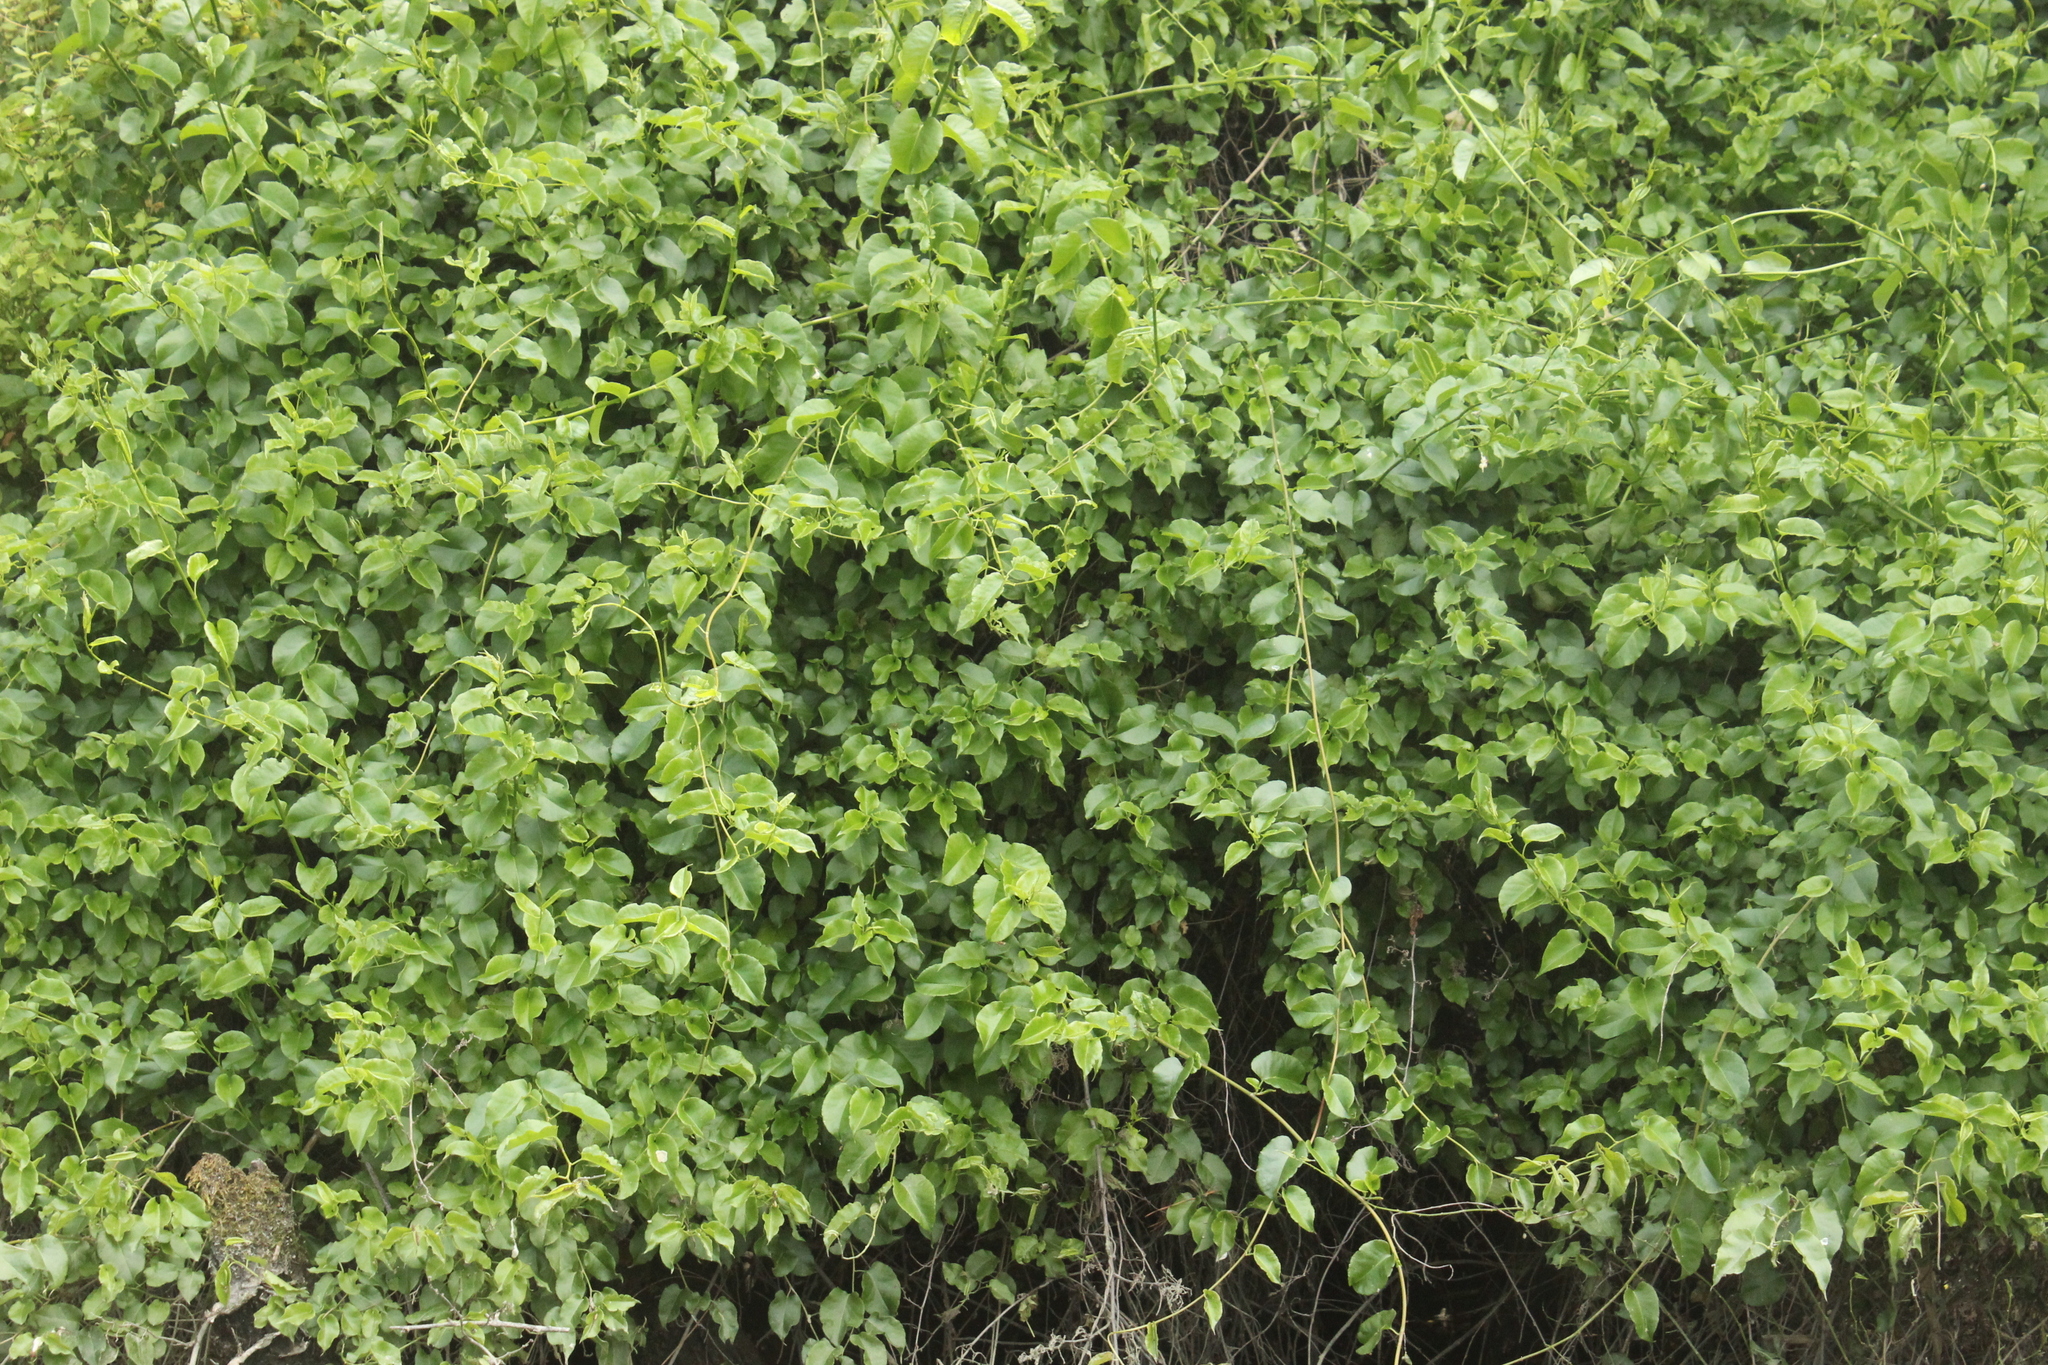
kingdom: Plantae
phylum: Tracheophyta
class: Magnoliopsida
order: Caryophyllales
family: Polygonaceae
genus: Muehlenbeckia
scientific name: Muehlenbeckia australis
